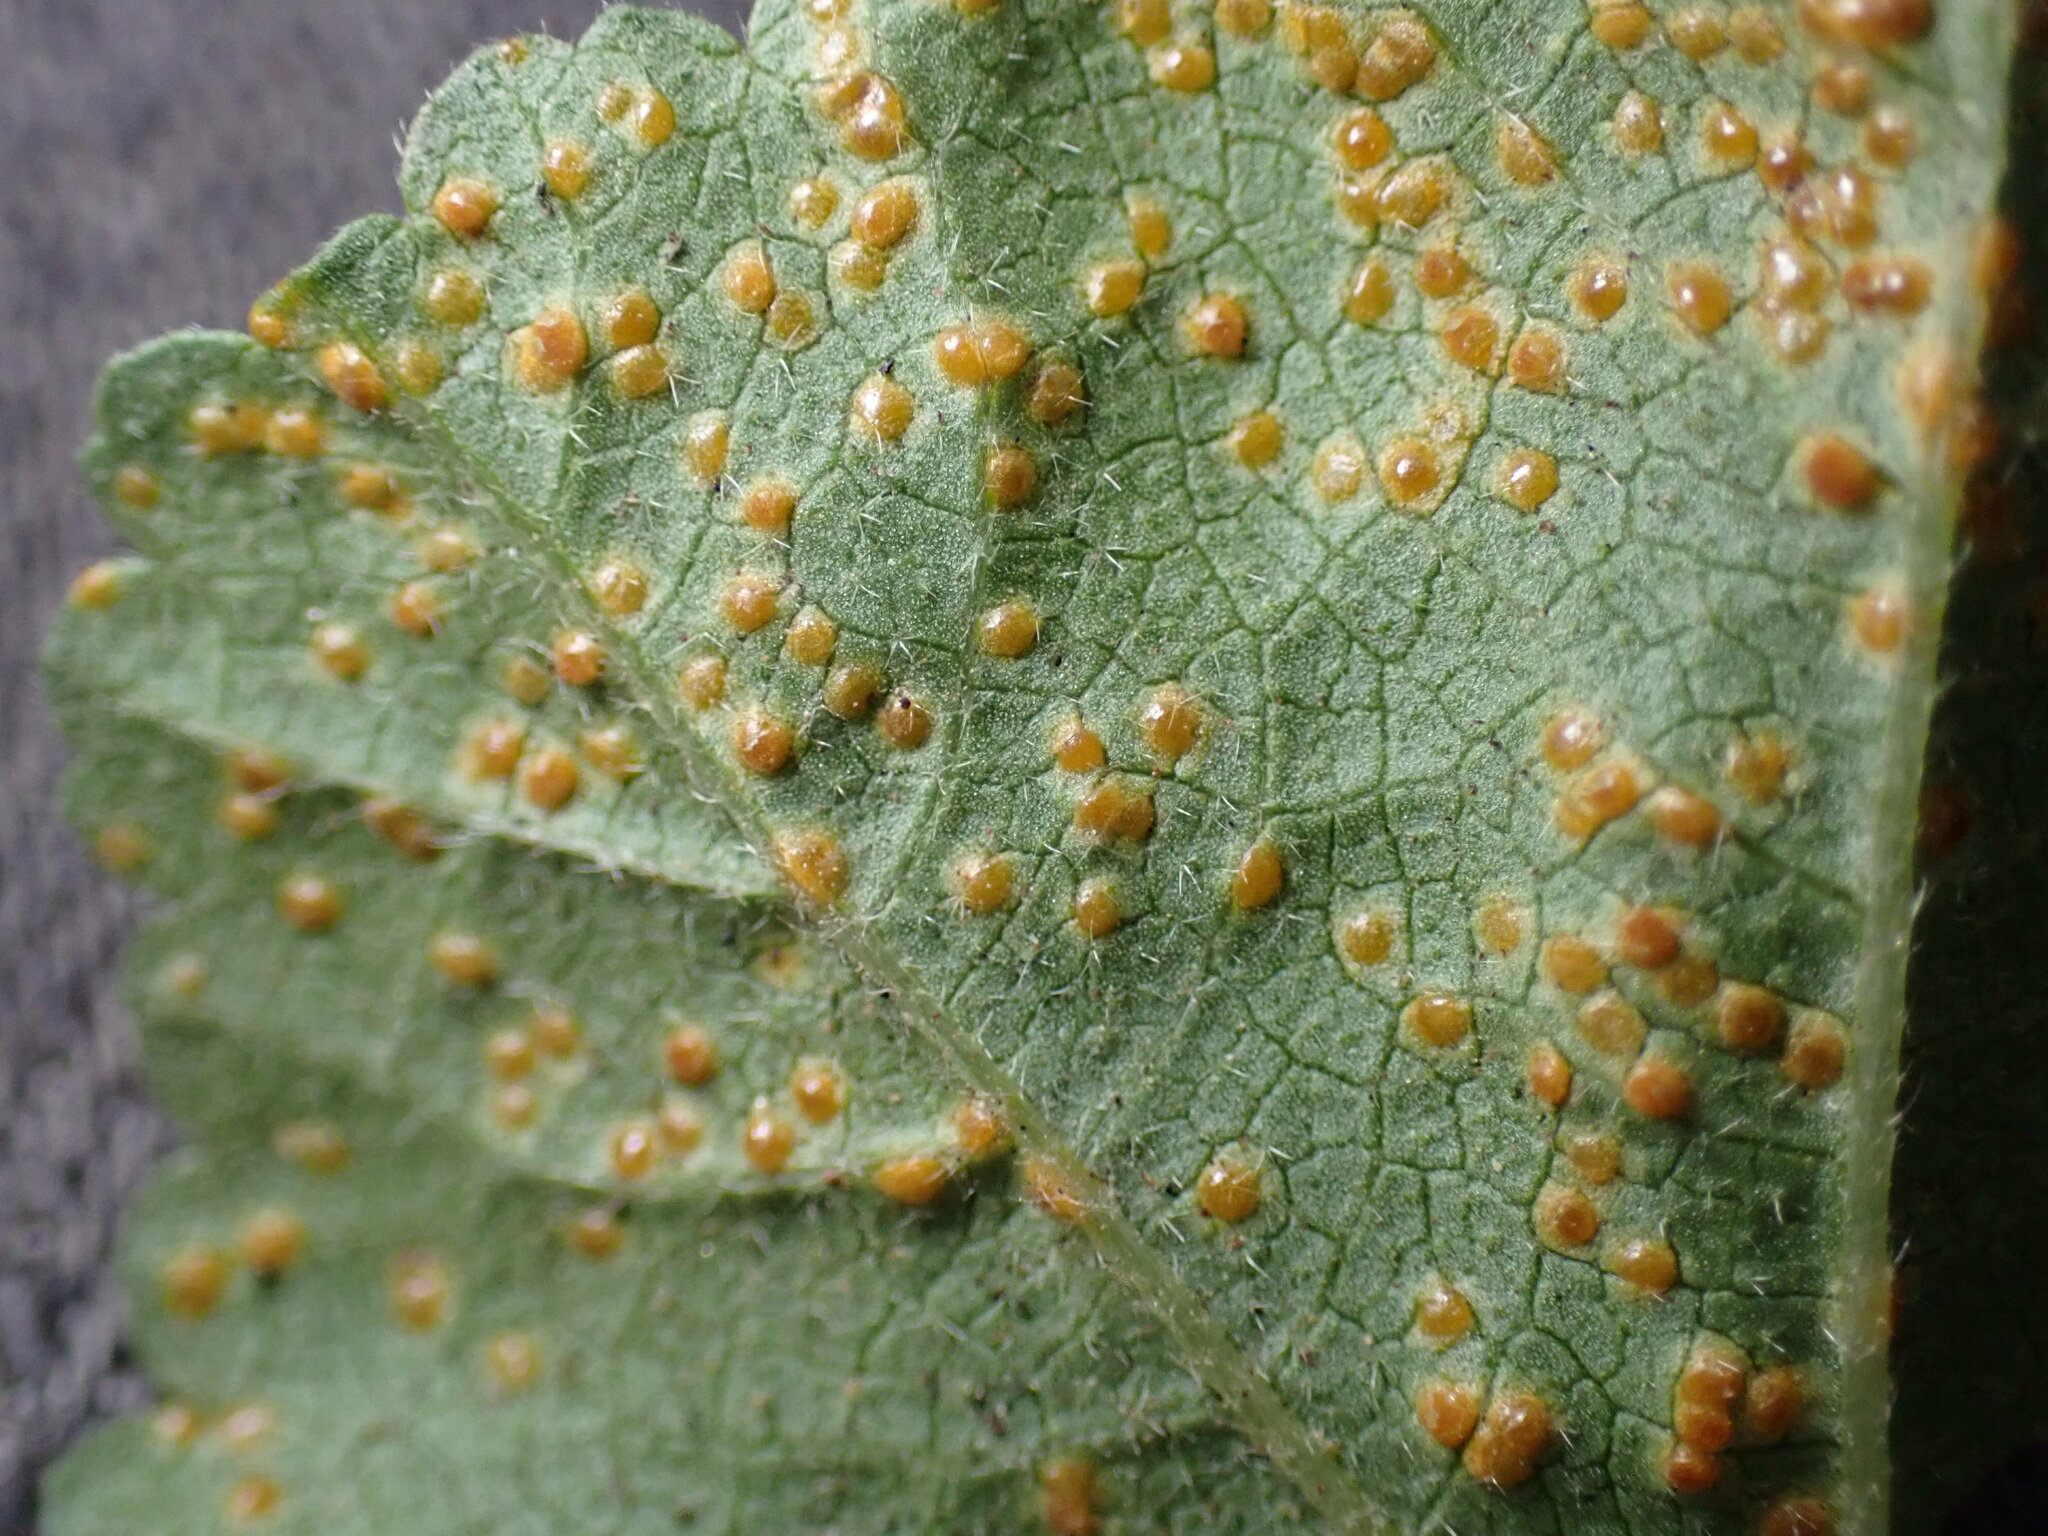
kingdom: Fungi
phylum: Basidiomycota
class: Pucciniomycetes
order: Pucciniales
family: Pucciniaceae
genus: Puccinia
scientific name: Puccinia malvacearum
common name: Hollyhock rust
